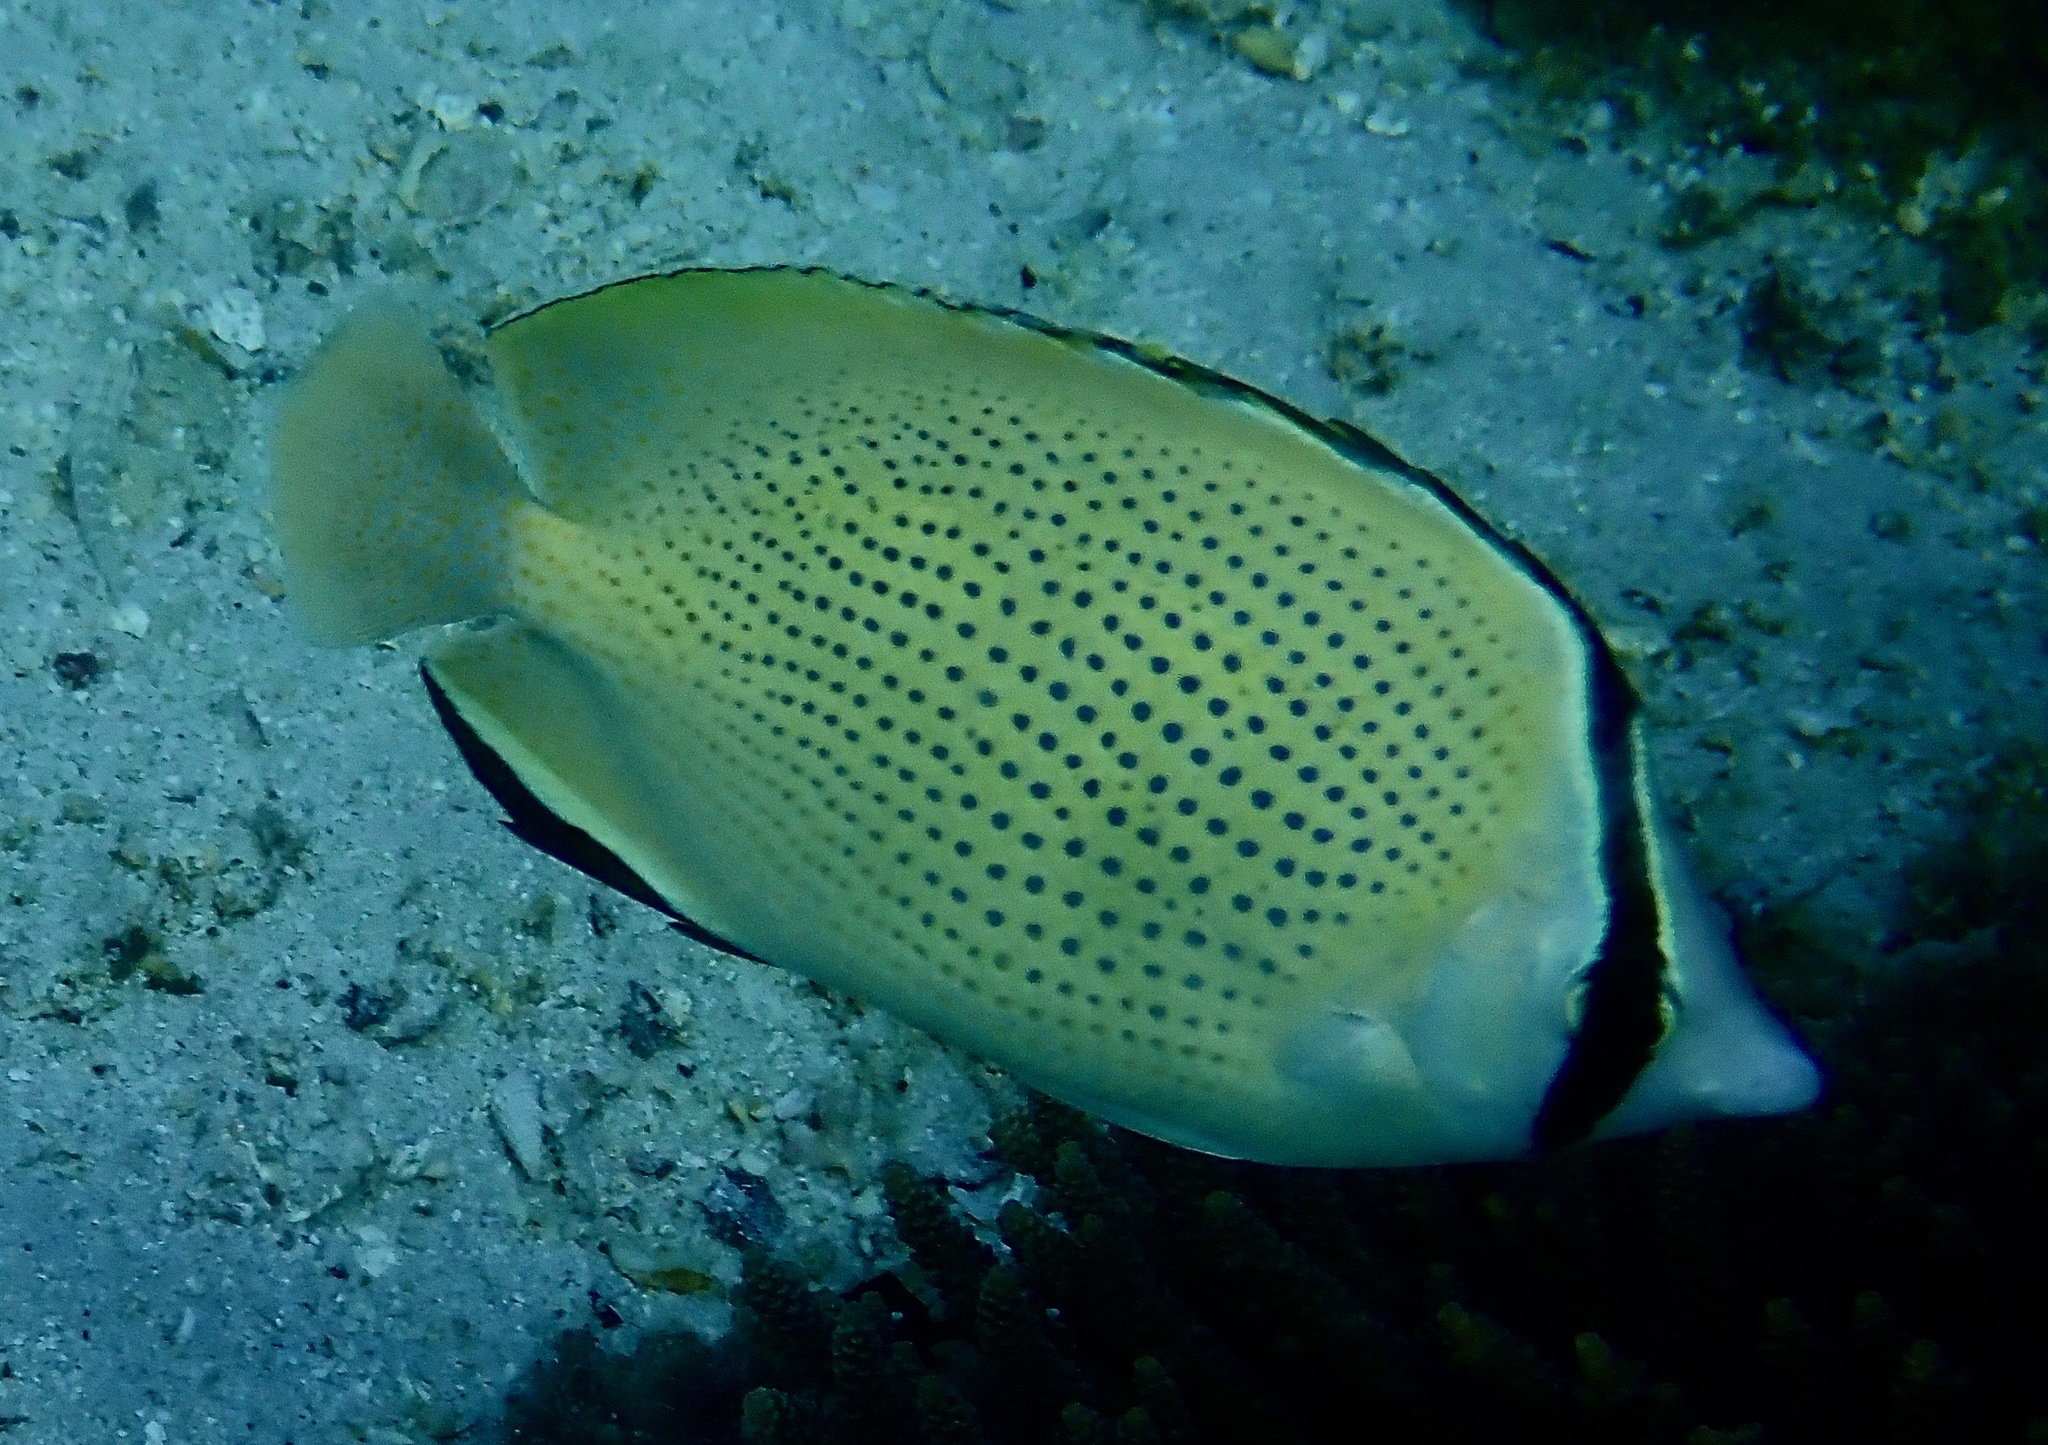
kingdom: Animalia
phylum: Chordata
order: Perciformes
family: Chaetodontidae
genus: Chaetodon
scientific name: Chaetodon citrinellus
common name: Speckled butterflyfish
